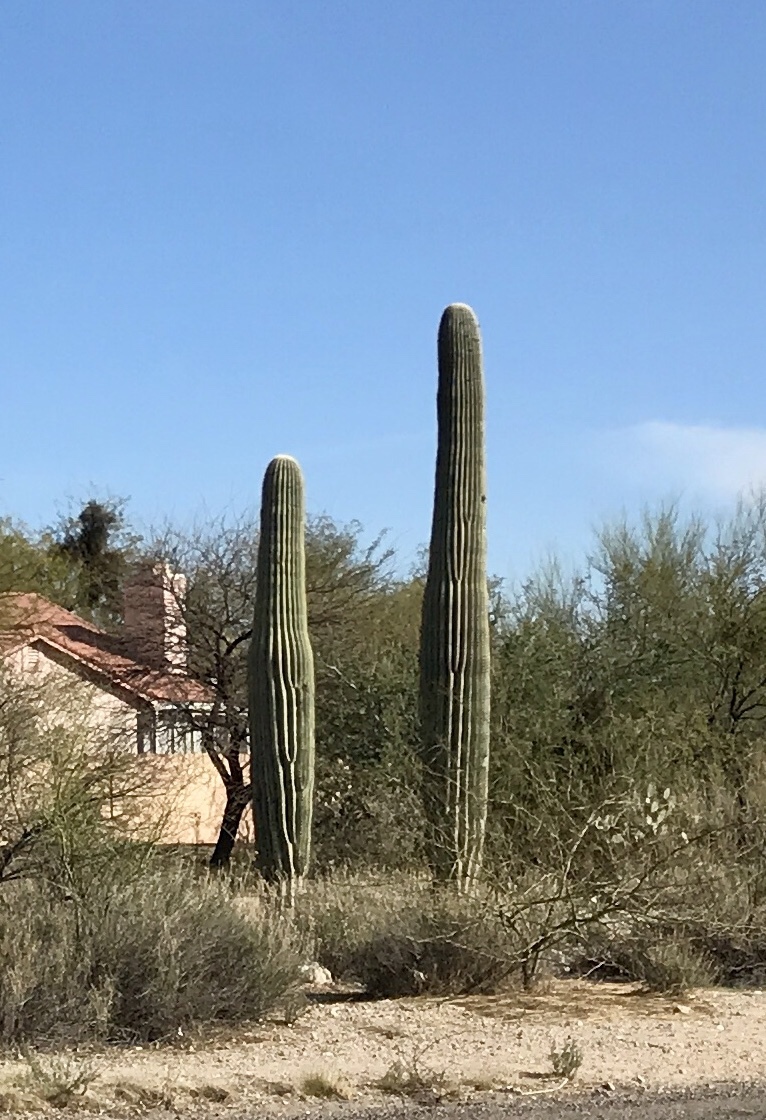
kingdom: Plantae
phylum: Tracheophyta
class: Magnoliopsida
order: Caryophyllales
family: Cactaceae
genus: Carnegiea
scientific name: Carnegiea gigantea
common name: Saguaro
